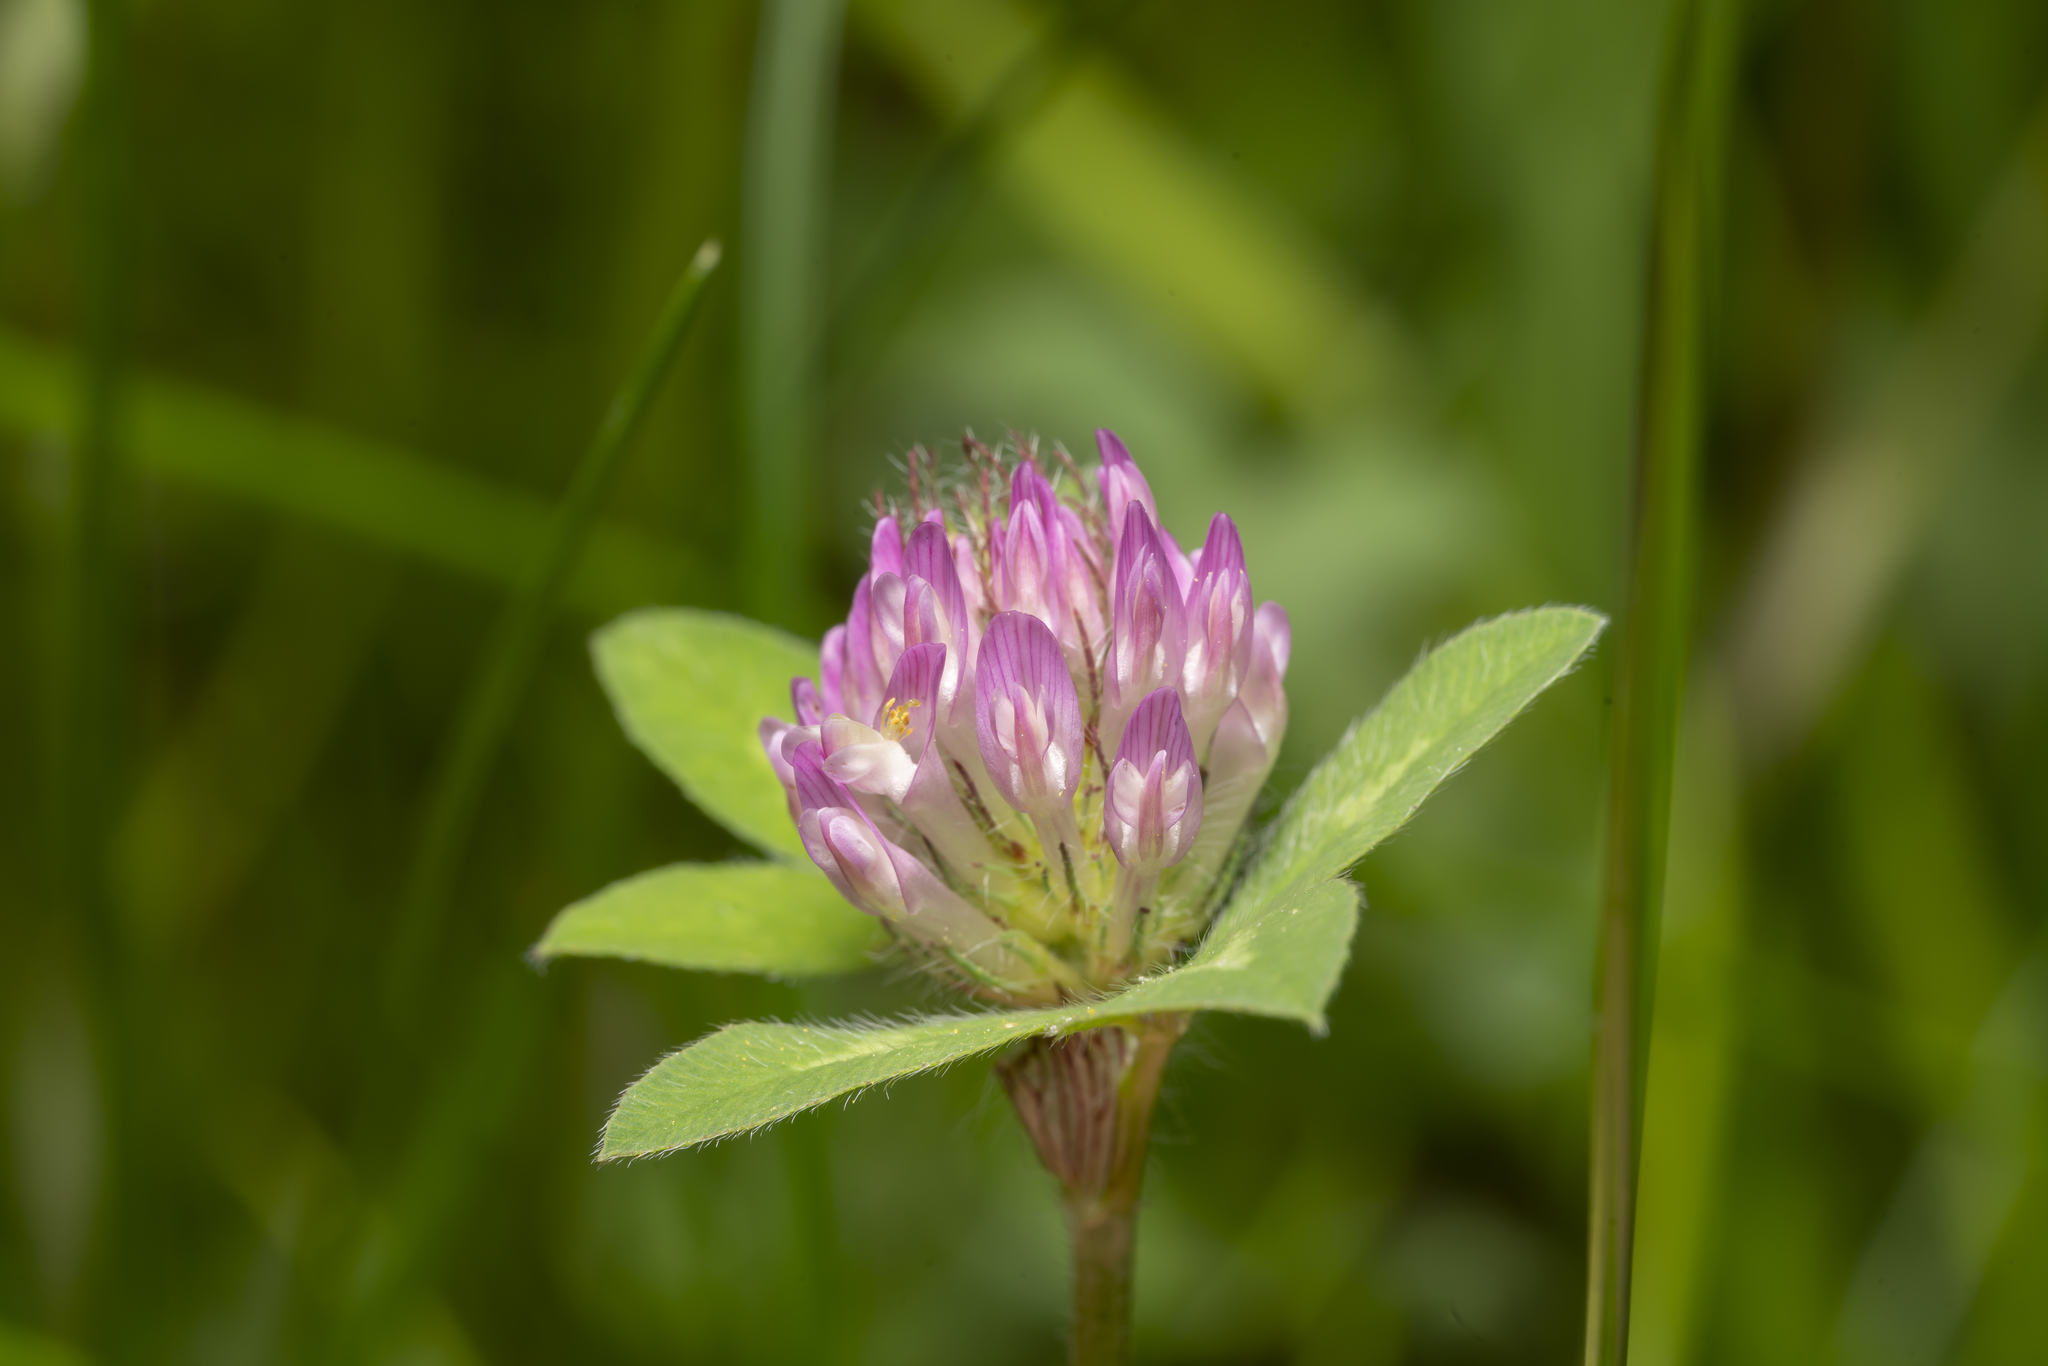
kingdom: Plantae
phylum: Tracheophyta
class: Magnoliopsida
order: Fabales
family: Fabaceae
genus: Trifolium
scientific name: Trifolium pratense
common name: Red clover
